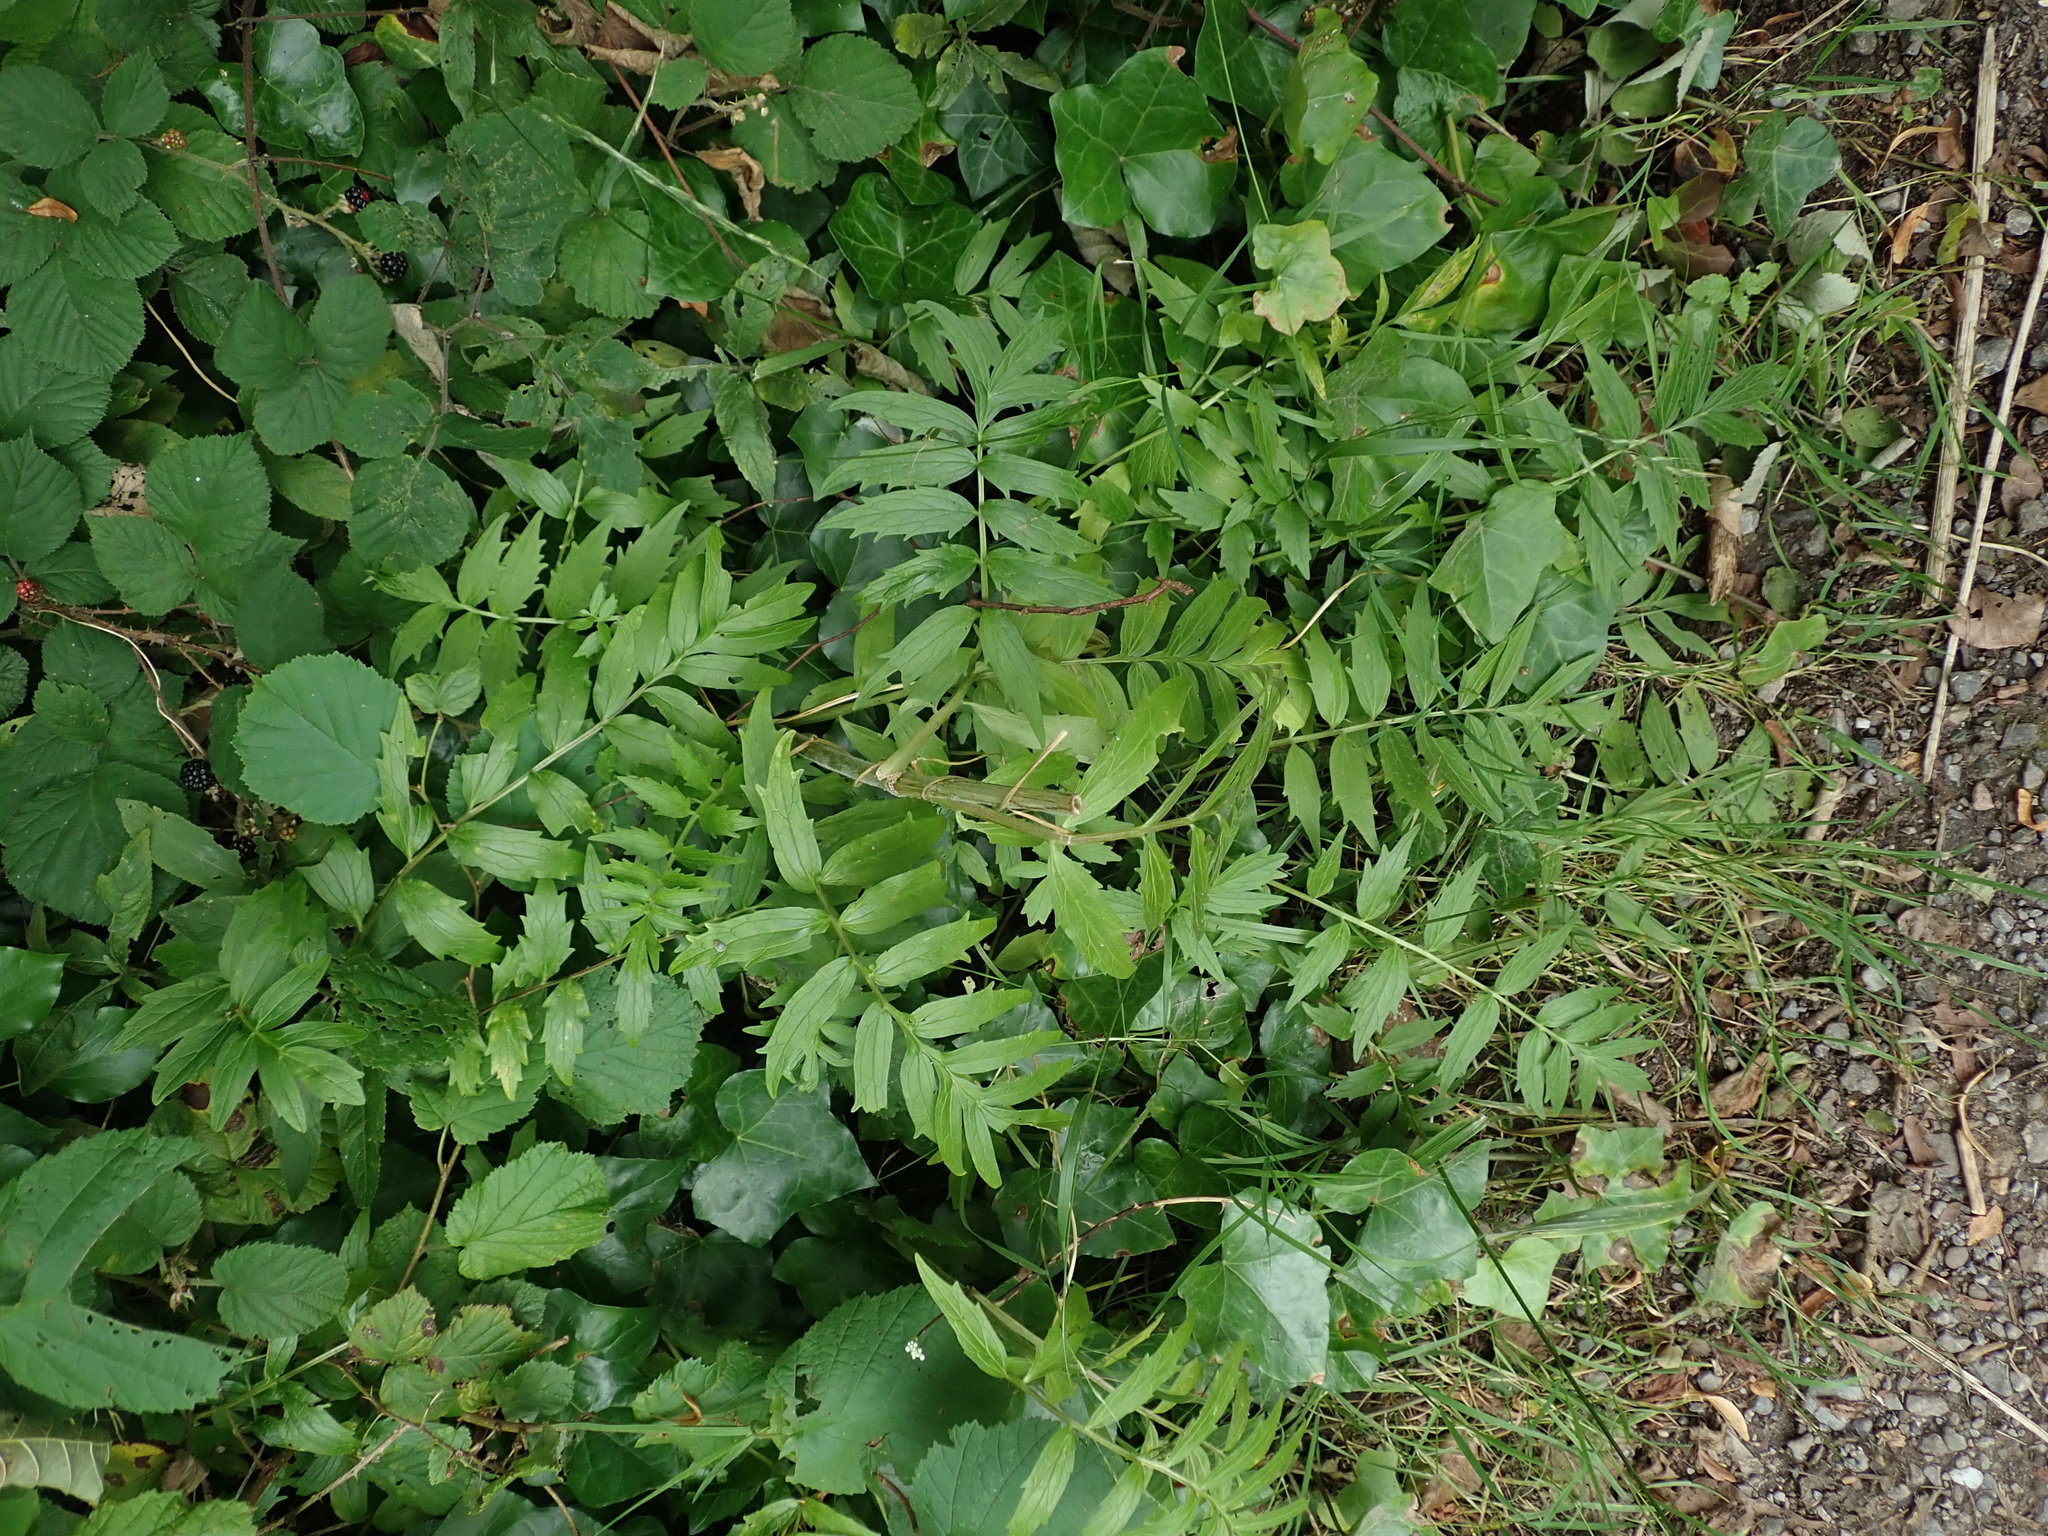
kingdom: Plantae
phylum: Tracheophyta
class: Magnoliopsida
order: Dipsacales
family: Caprifoliaceae
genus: Valeriana
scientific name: Valeriana officinalis
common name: Common valerian
